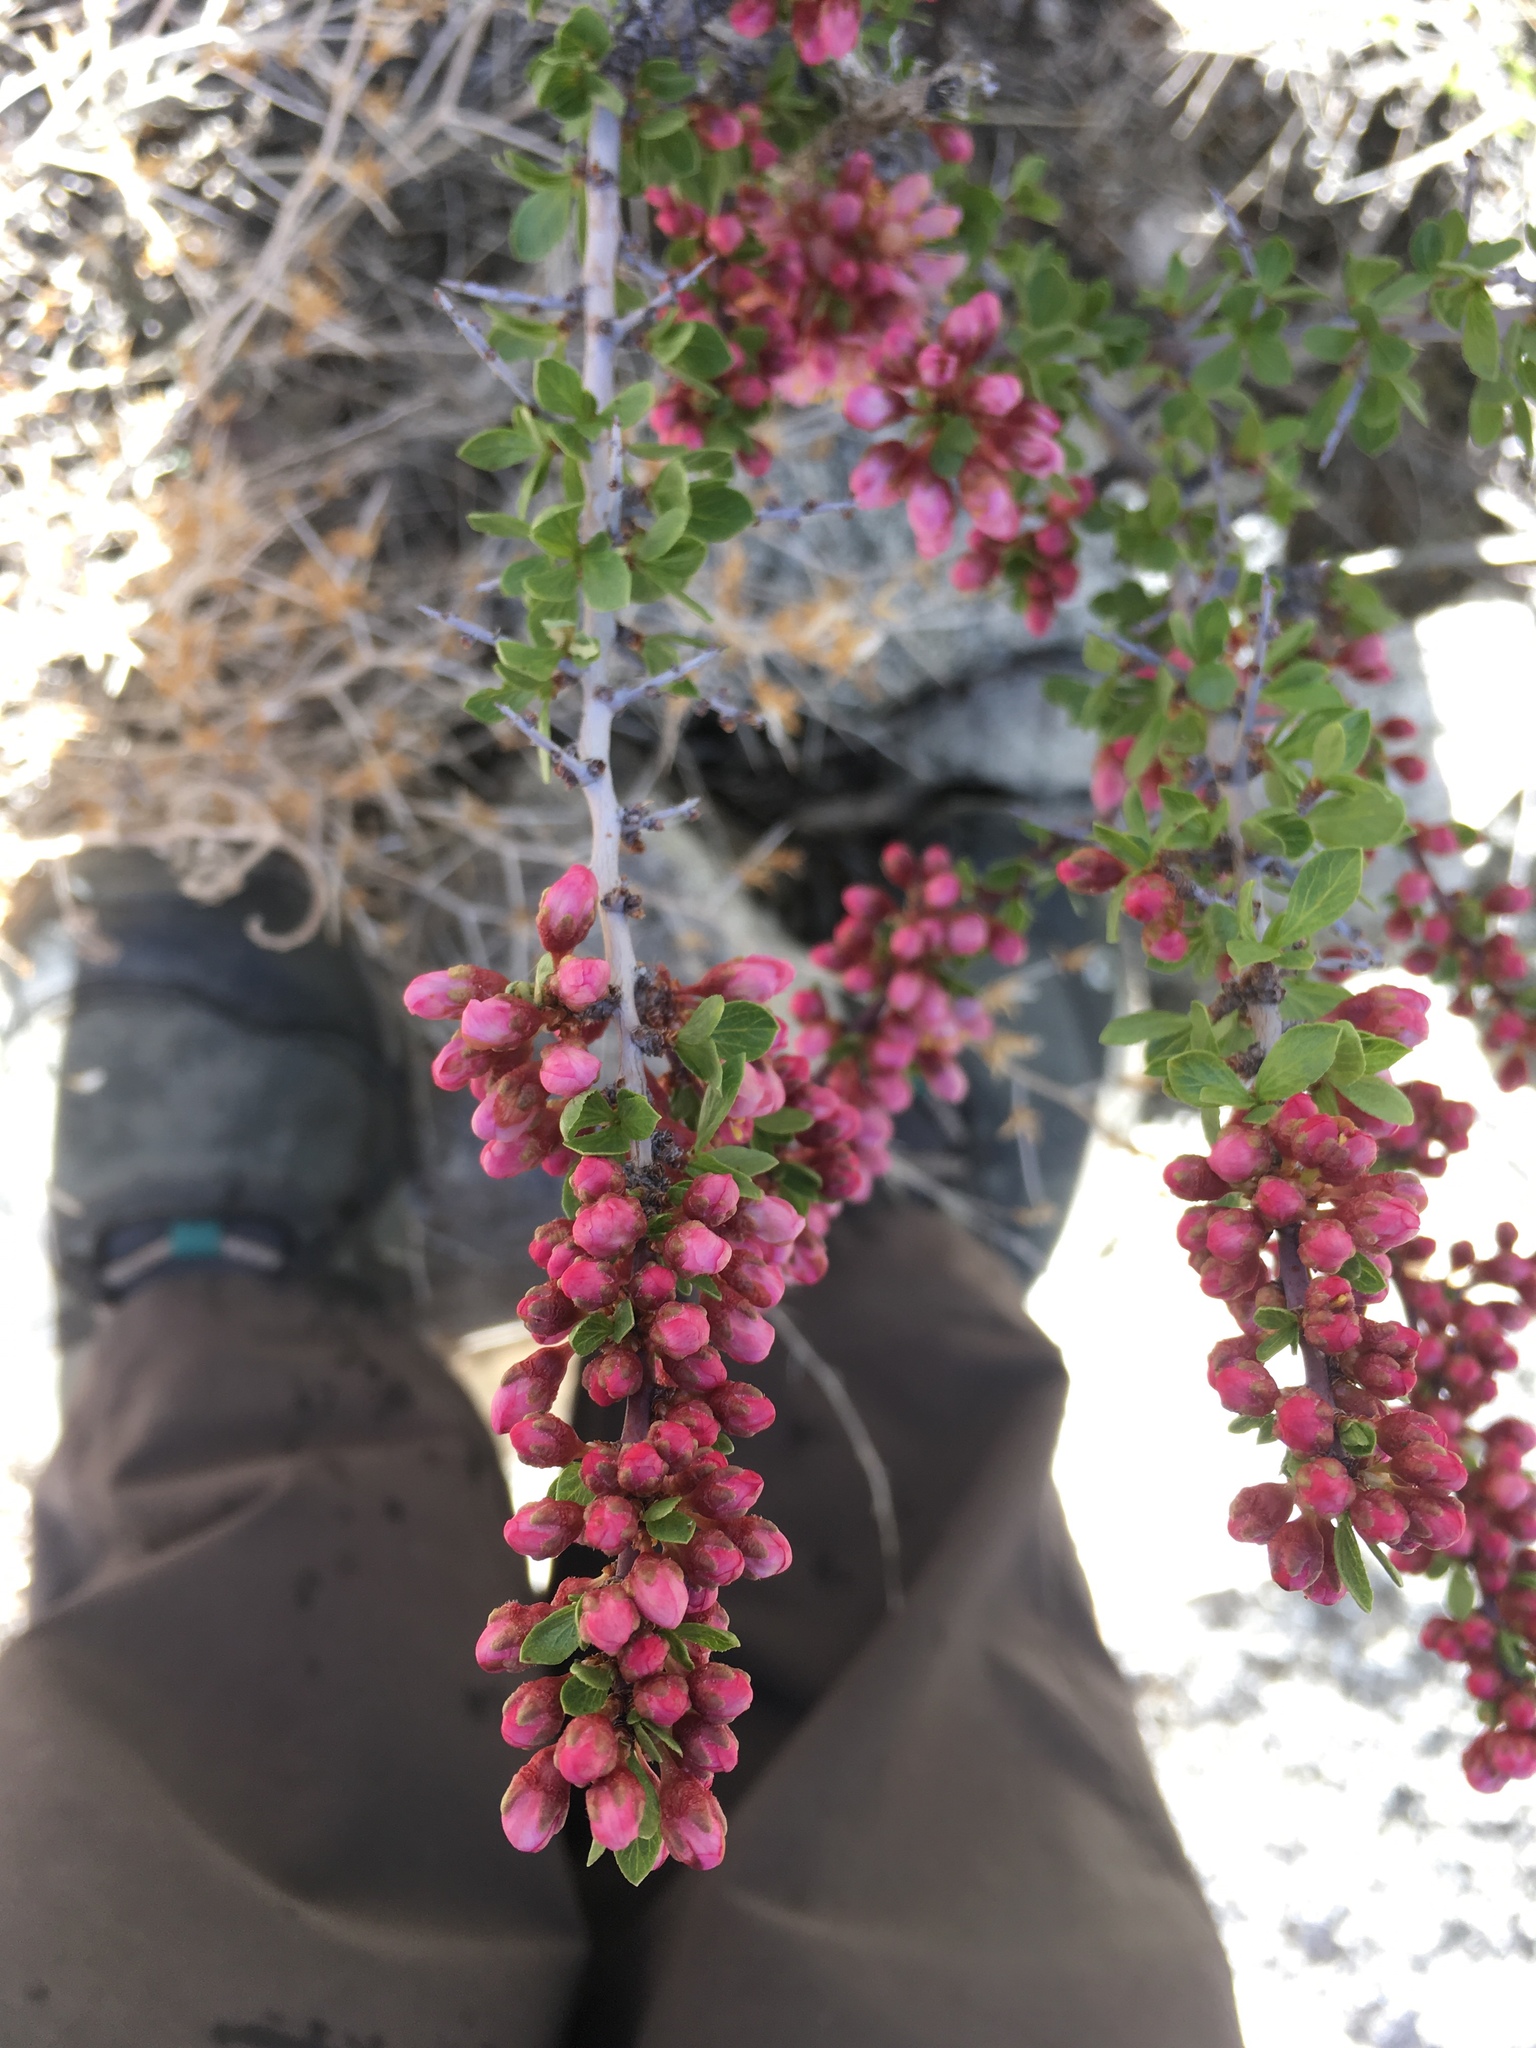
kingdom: Plantae
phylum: Tracheophyta
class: Magnoliopsida
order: Rosales
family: Rosaceae
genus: Prunus
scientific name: Prunus andersonii
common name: Desert peach
